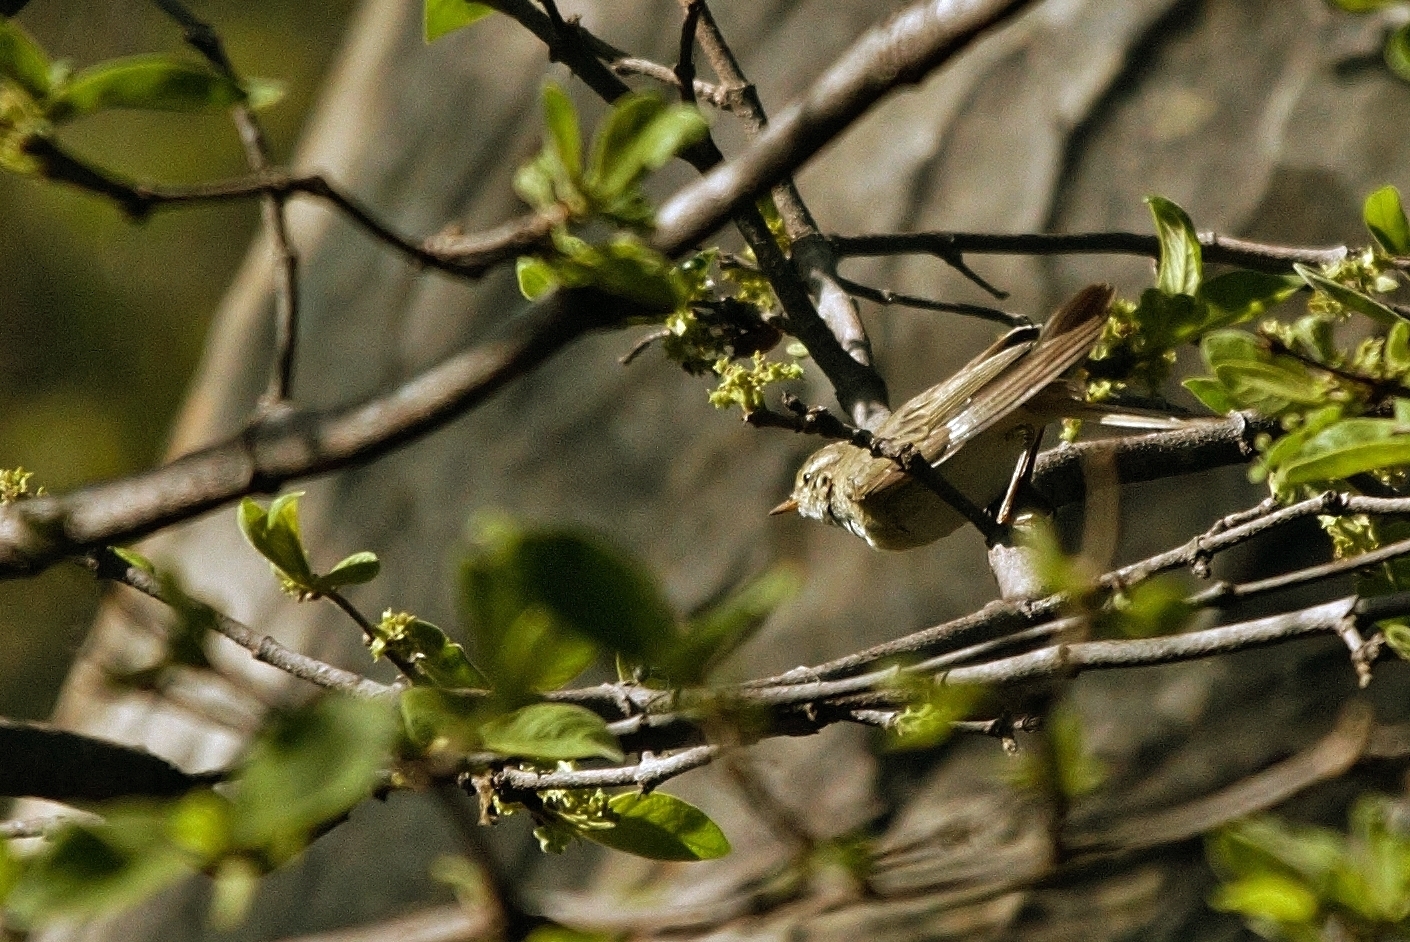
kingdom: Animalia
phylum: Chordata
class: Aves
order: Passeriformes
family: Phylloscopidae
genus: Phylloscopus
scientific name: Phylloscopus trochilus
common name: Willow warbler
